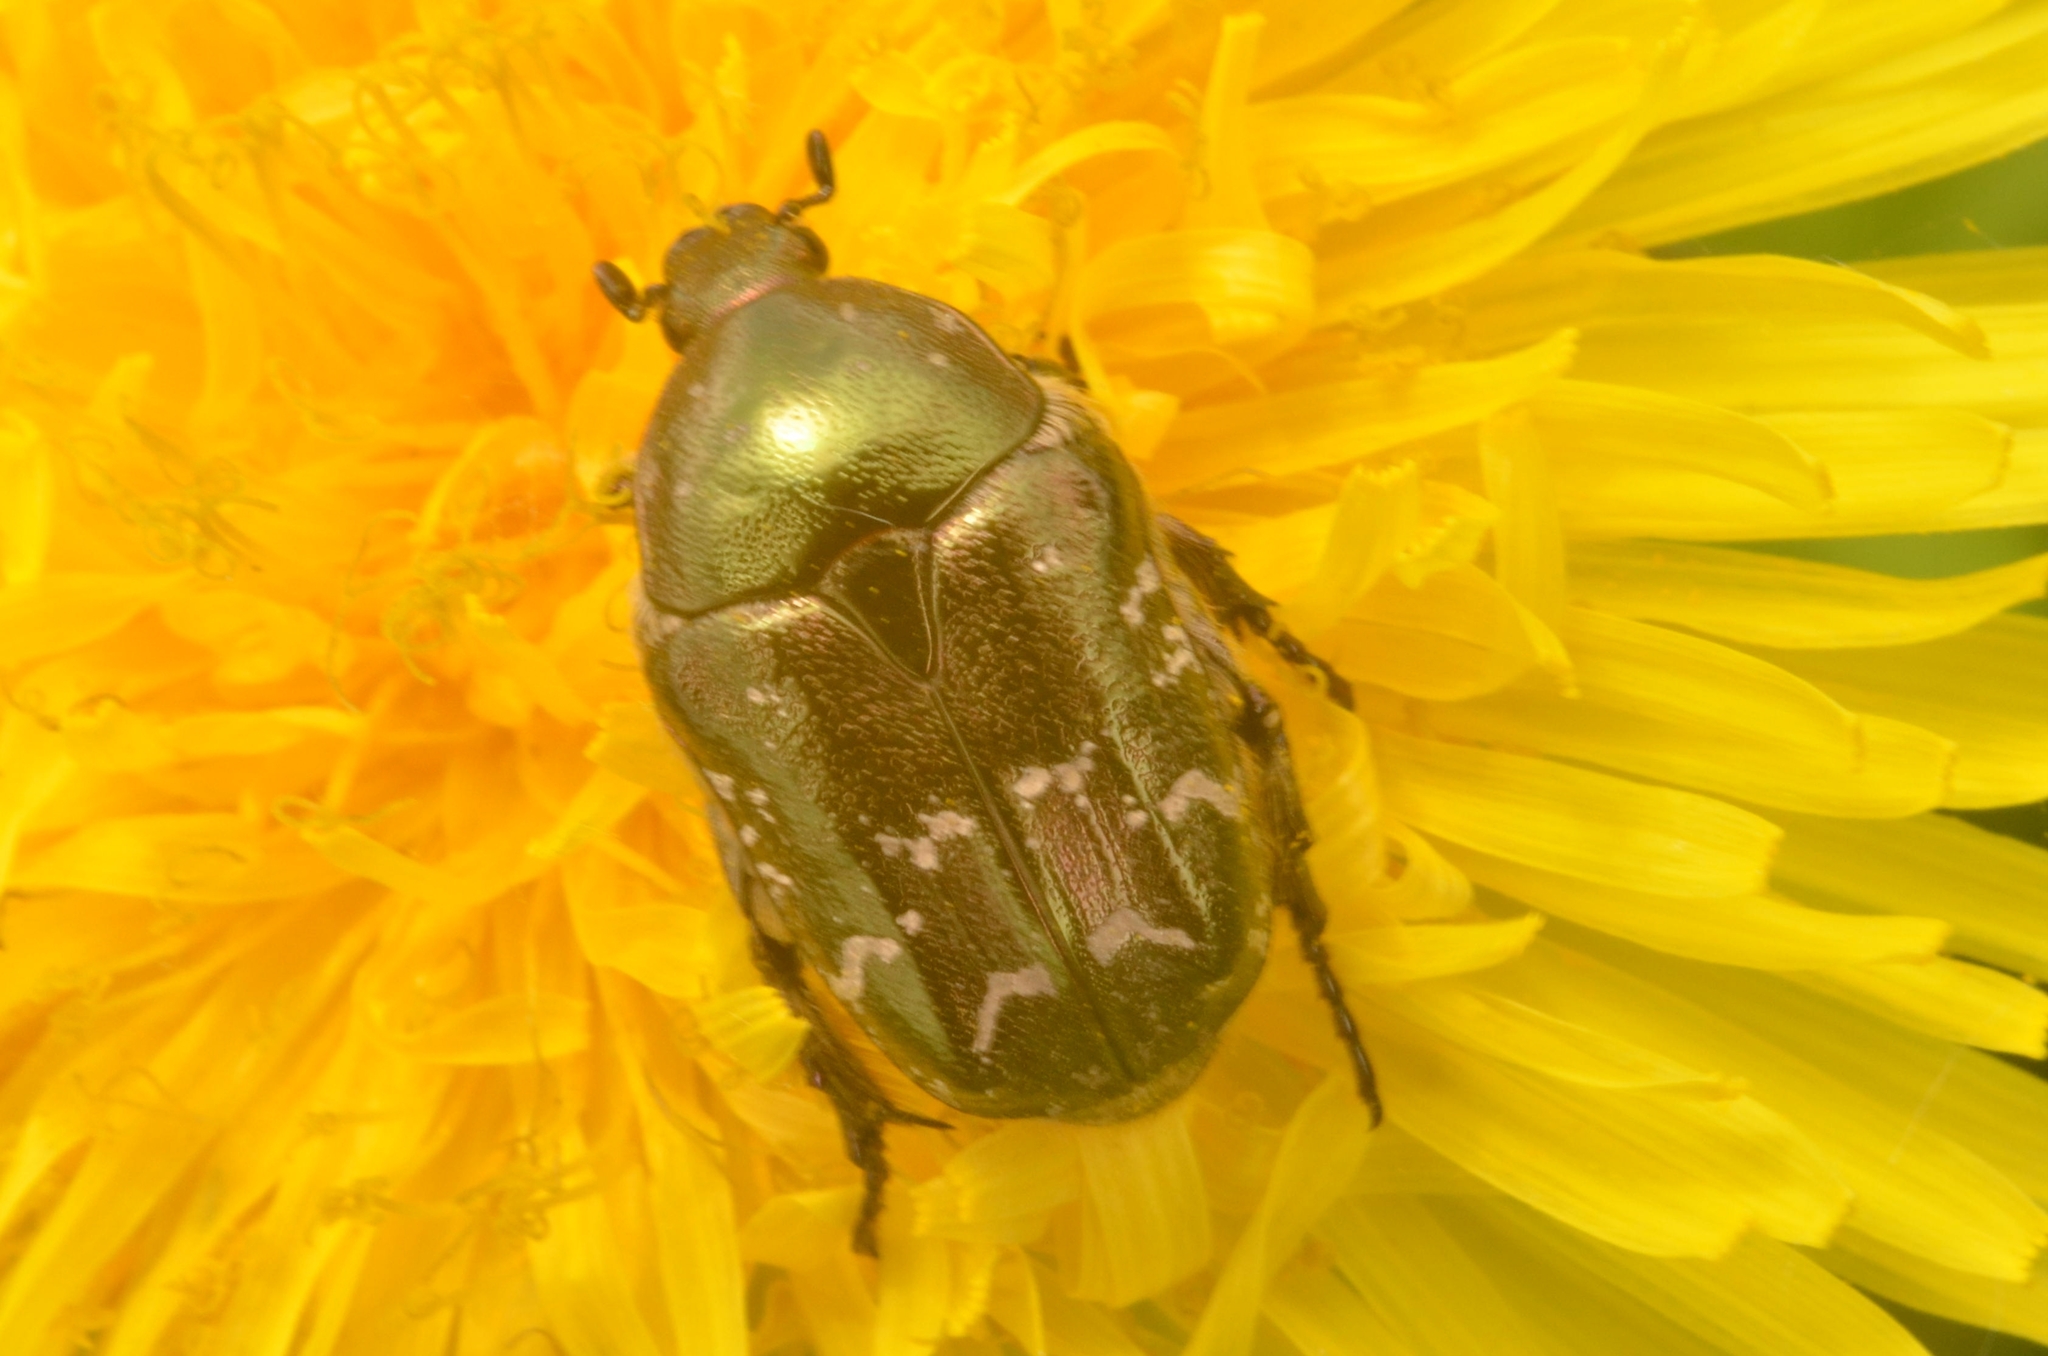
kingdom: Animalia
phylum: Arthropoda
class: Insecta
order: Coleoptera
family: Scarabaeidae
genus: Protaetia
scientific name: Protaetia cuprea
